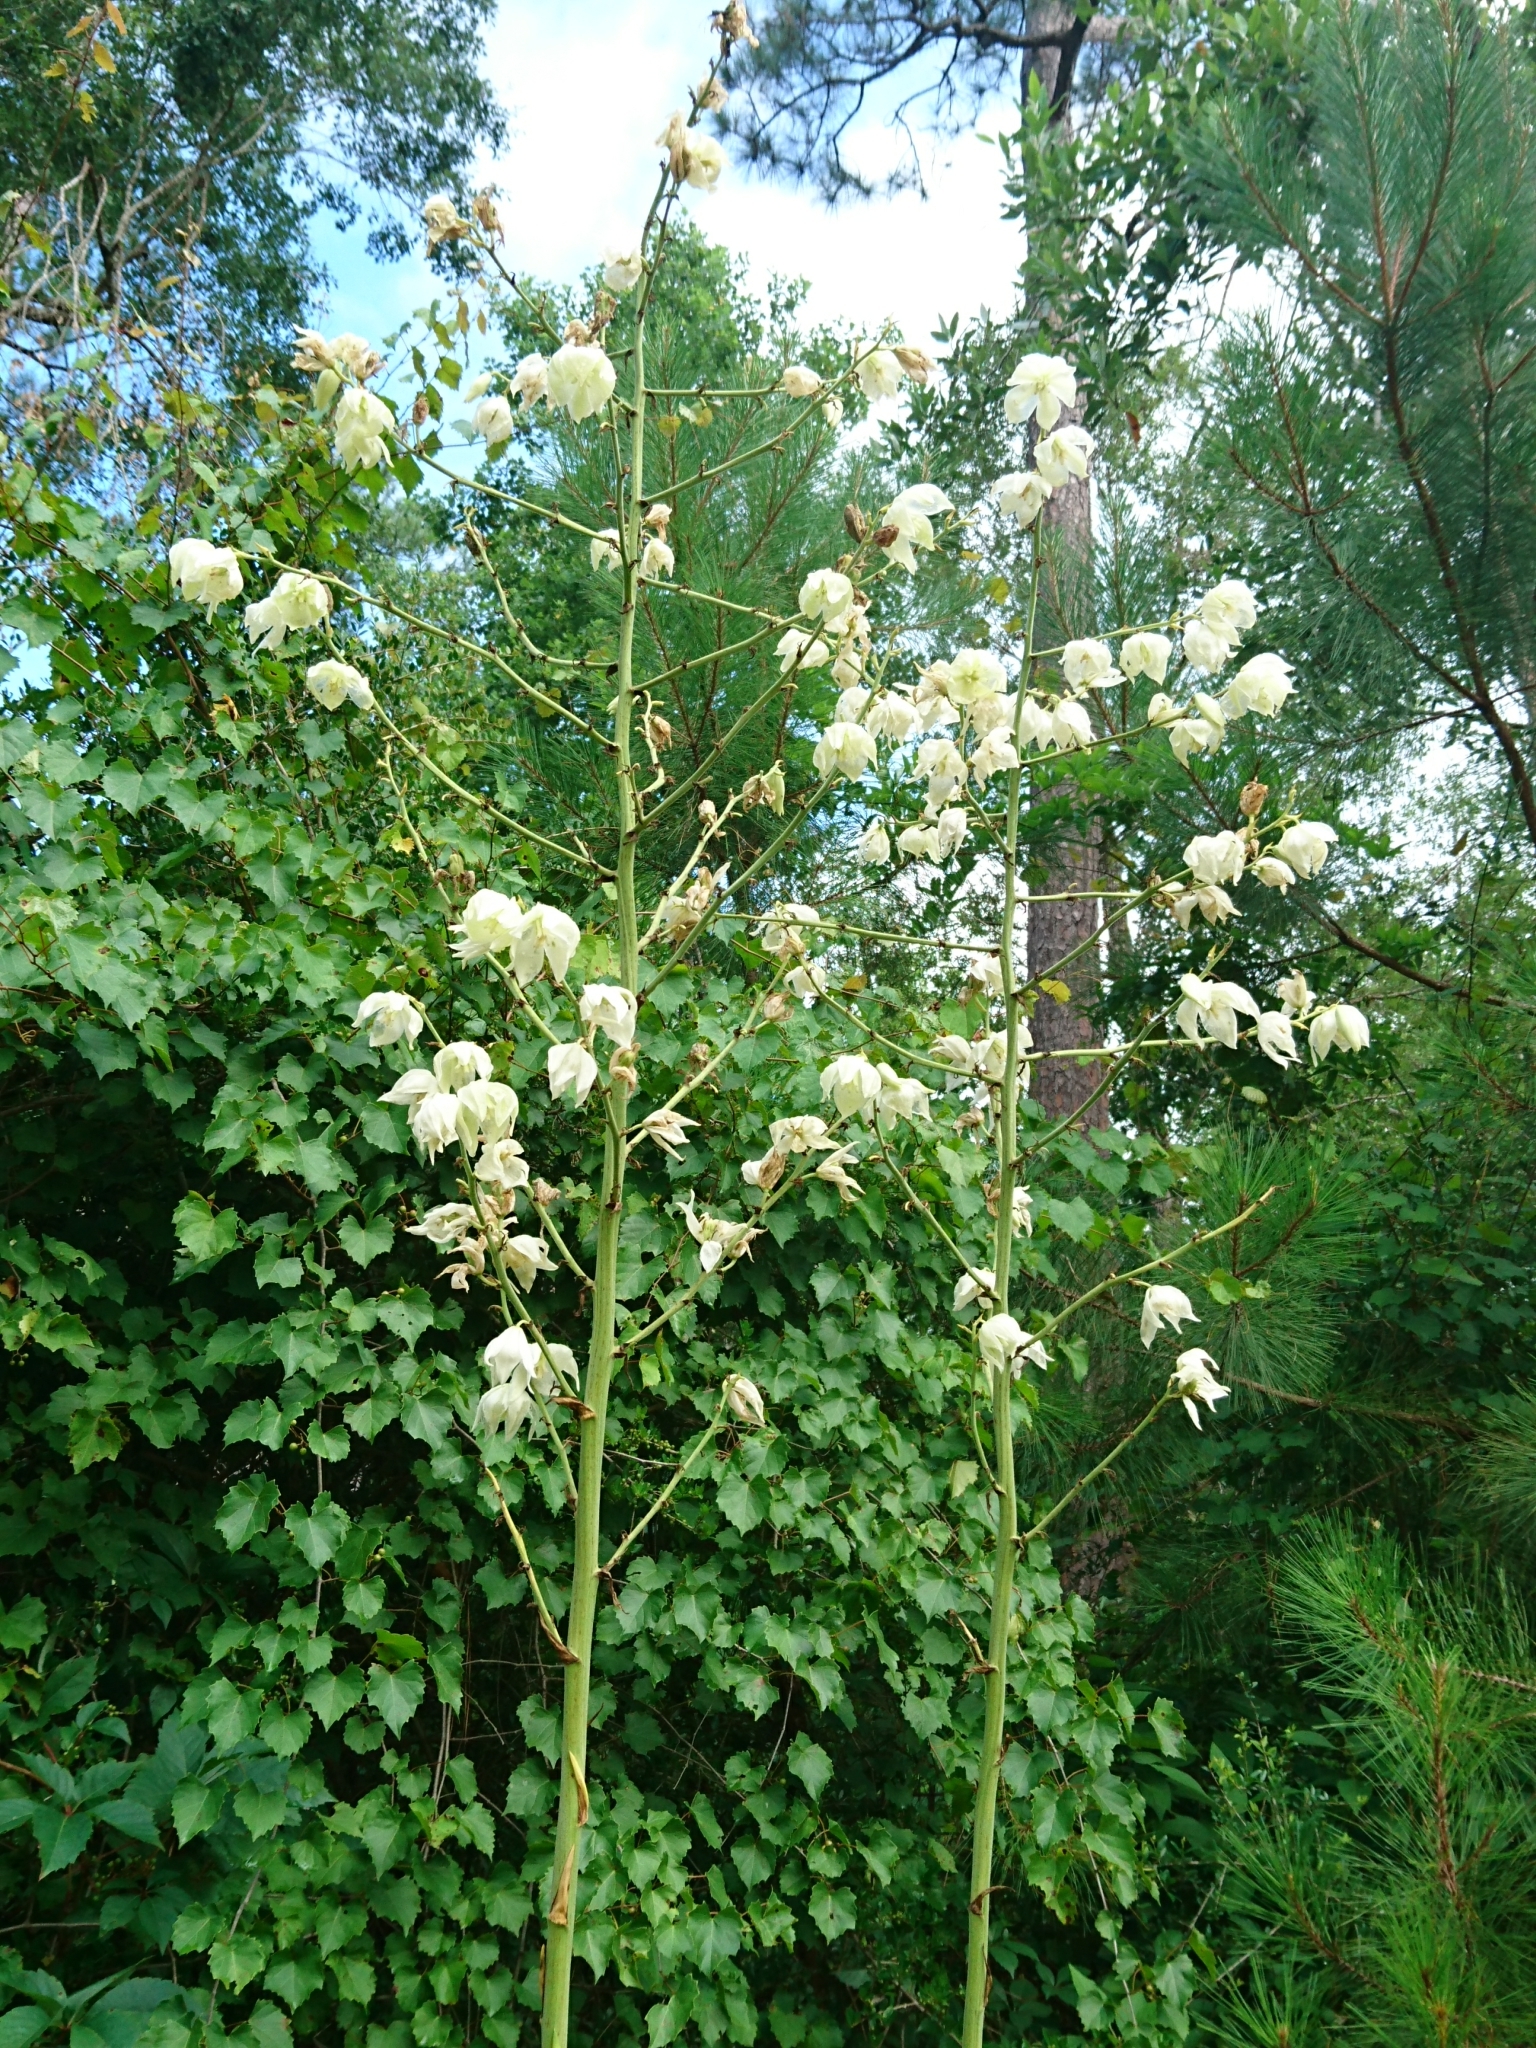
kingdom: Plantae
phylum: Tracheophyta
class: Liliopsida
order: Asparagales
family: Asparagaceae
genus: Yucca
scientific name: Yucca filamentosa
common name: Adam's-needle
